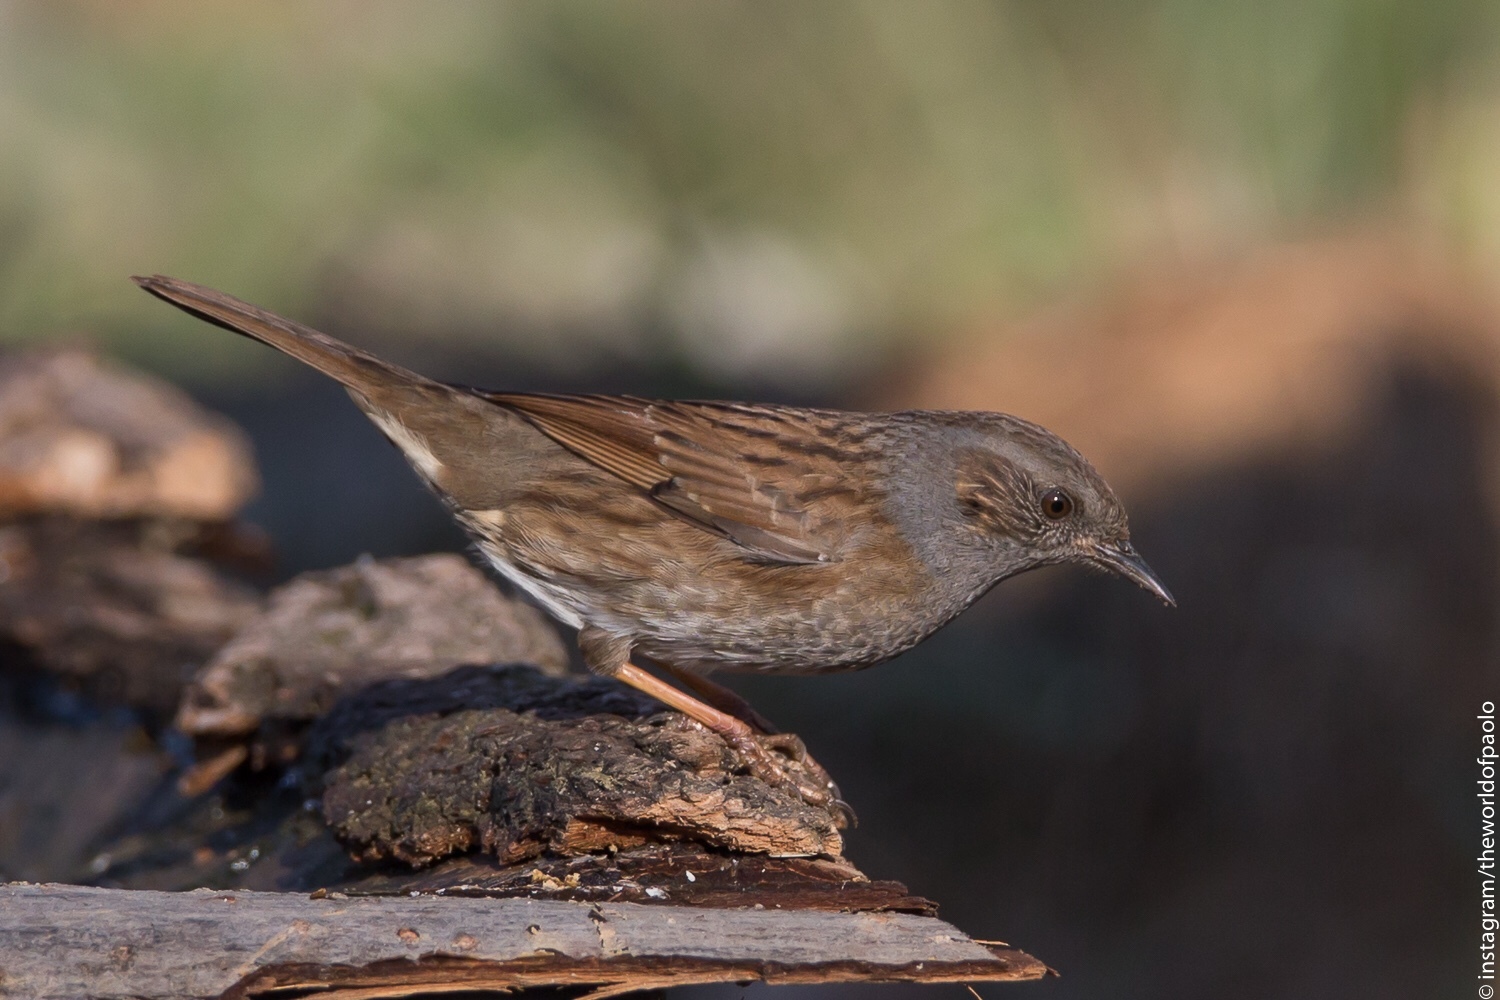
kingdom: Animalia
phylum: Chordata
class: Aves
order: Passeriformes
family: Prunellidae
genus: Prunella
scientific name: Prunella modularis
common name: Dunnock
